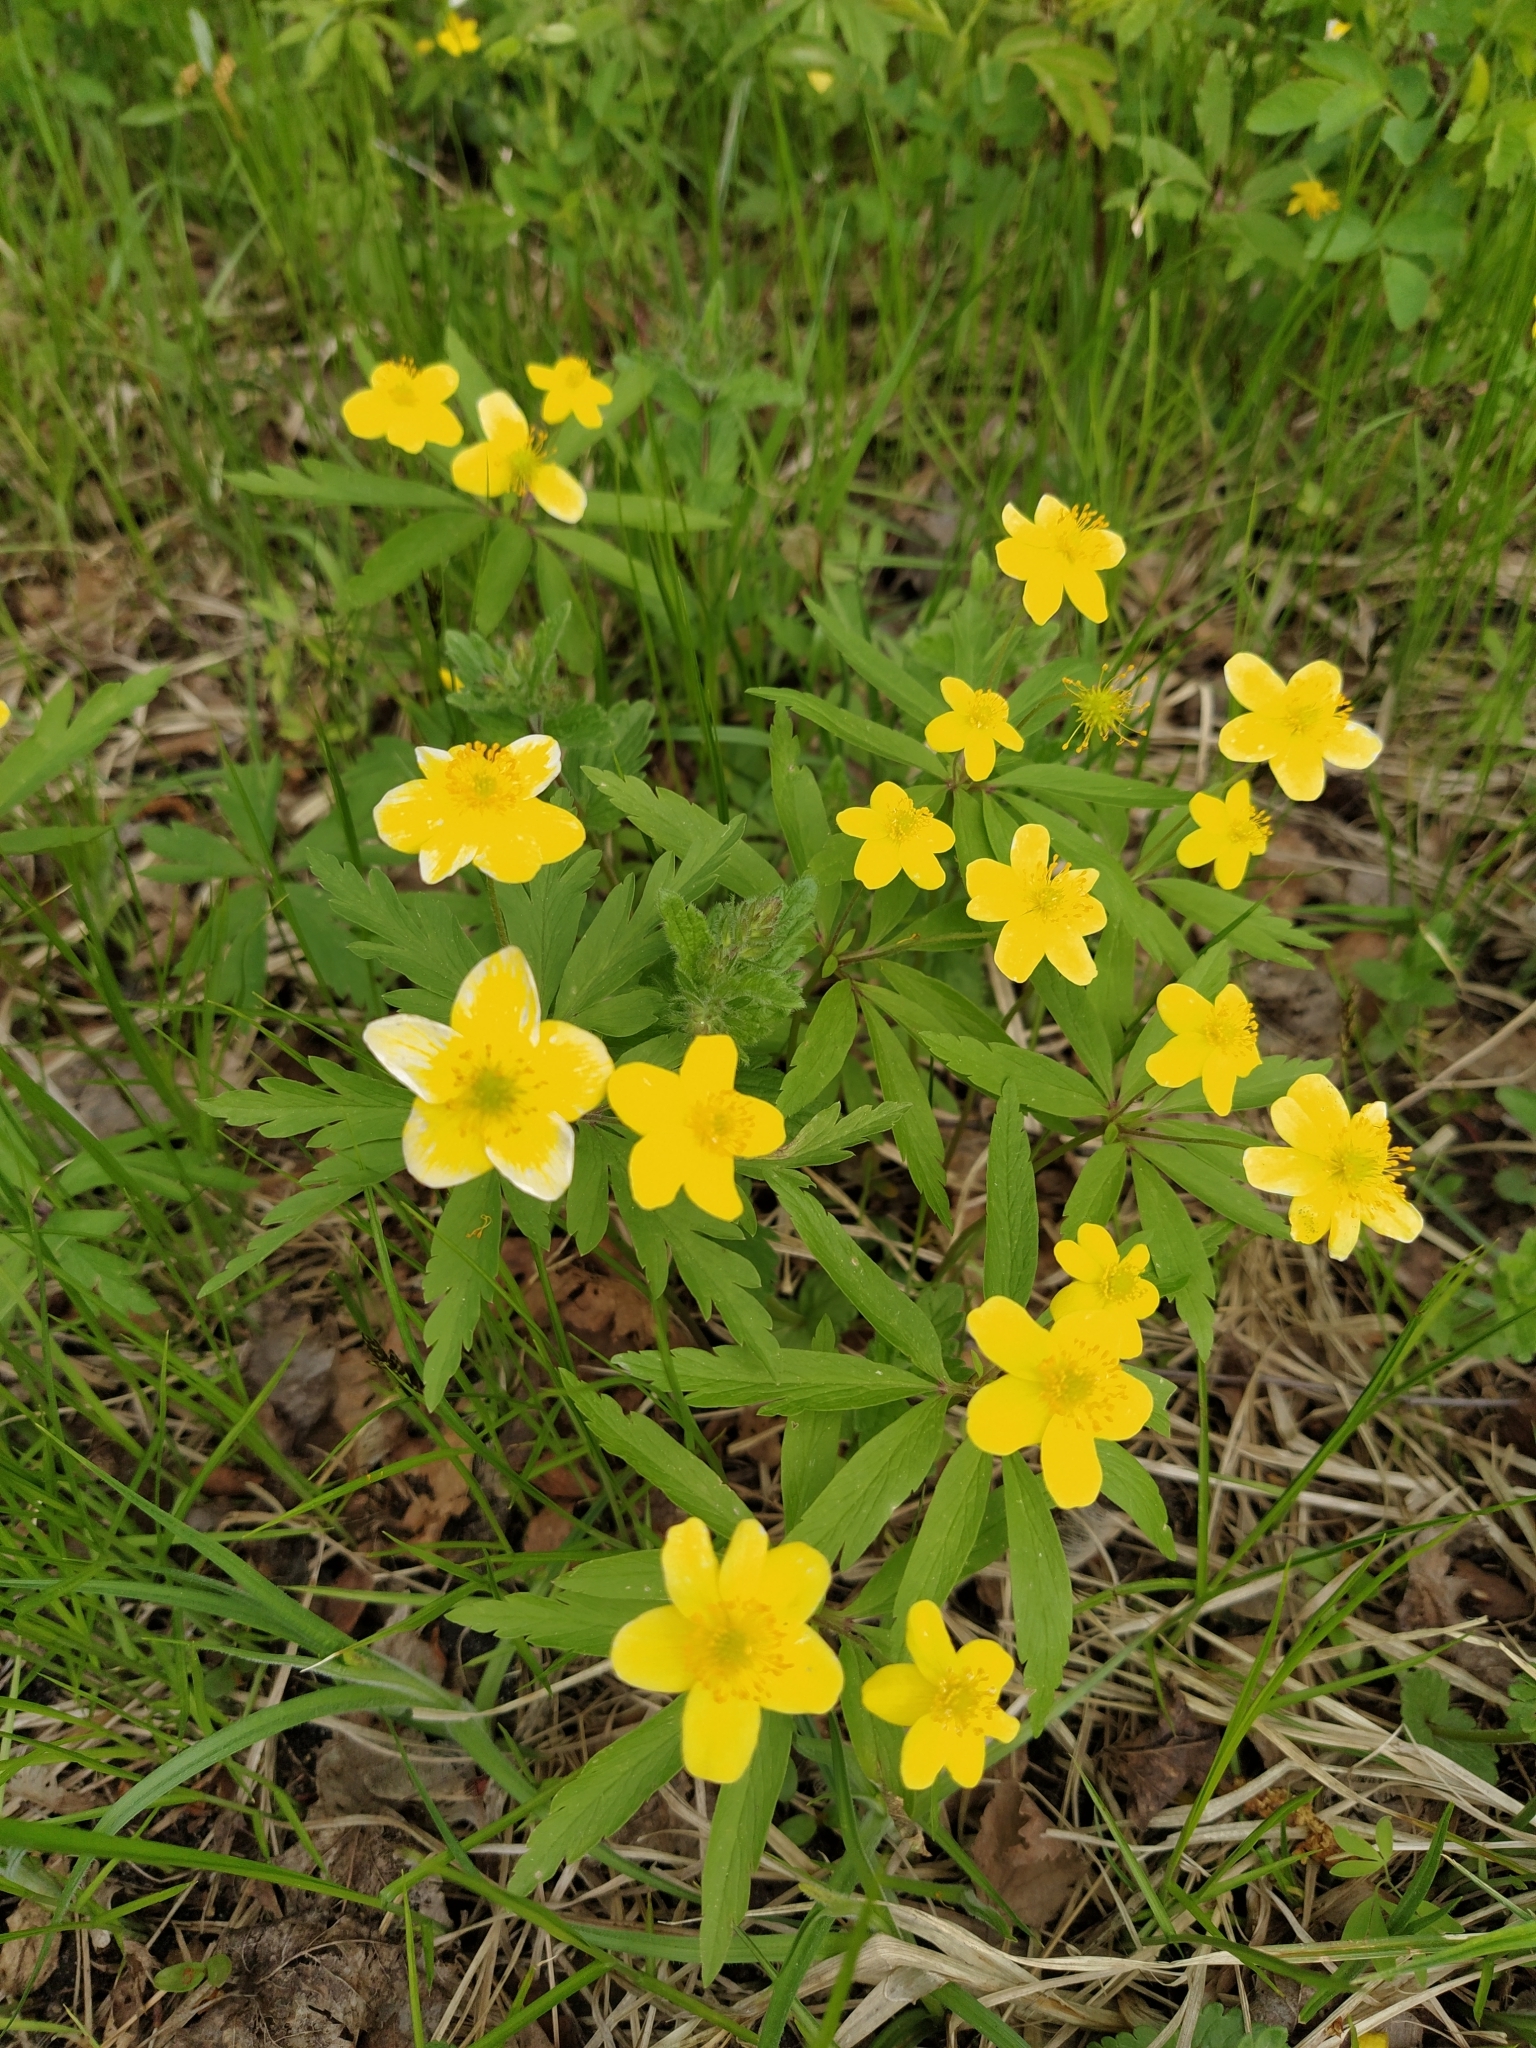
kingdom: Plantae
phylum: Tracheophyta
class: Magnoliopsida
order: Ranunculales
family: Ranunculaceae
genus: Anemone
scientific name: Anemone ranunculoides
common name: Yellow anemone
